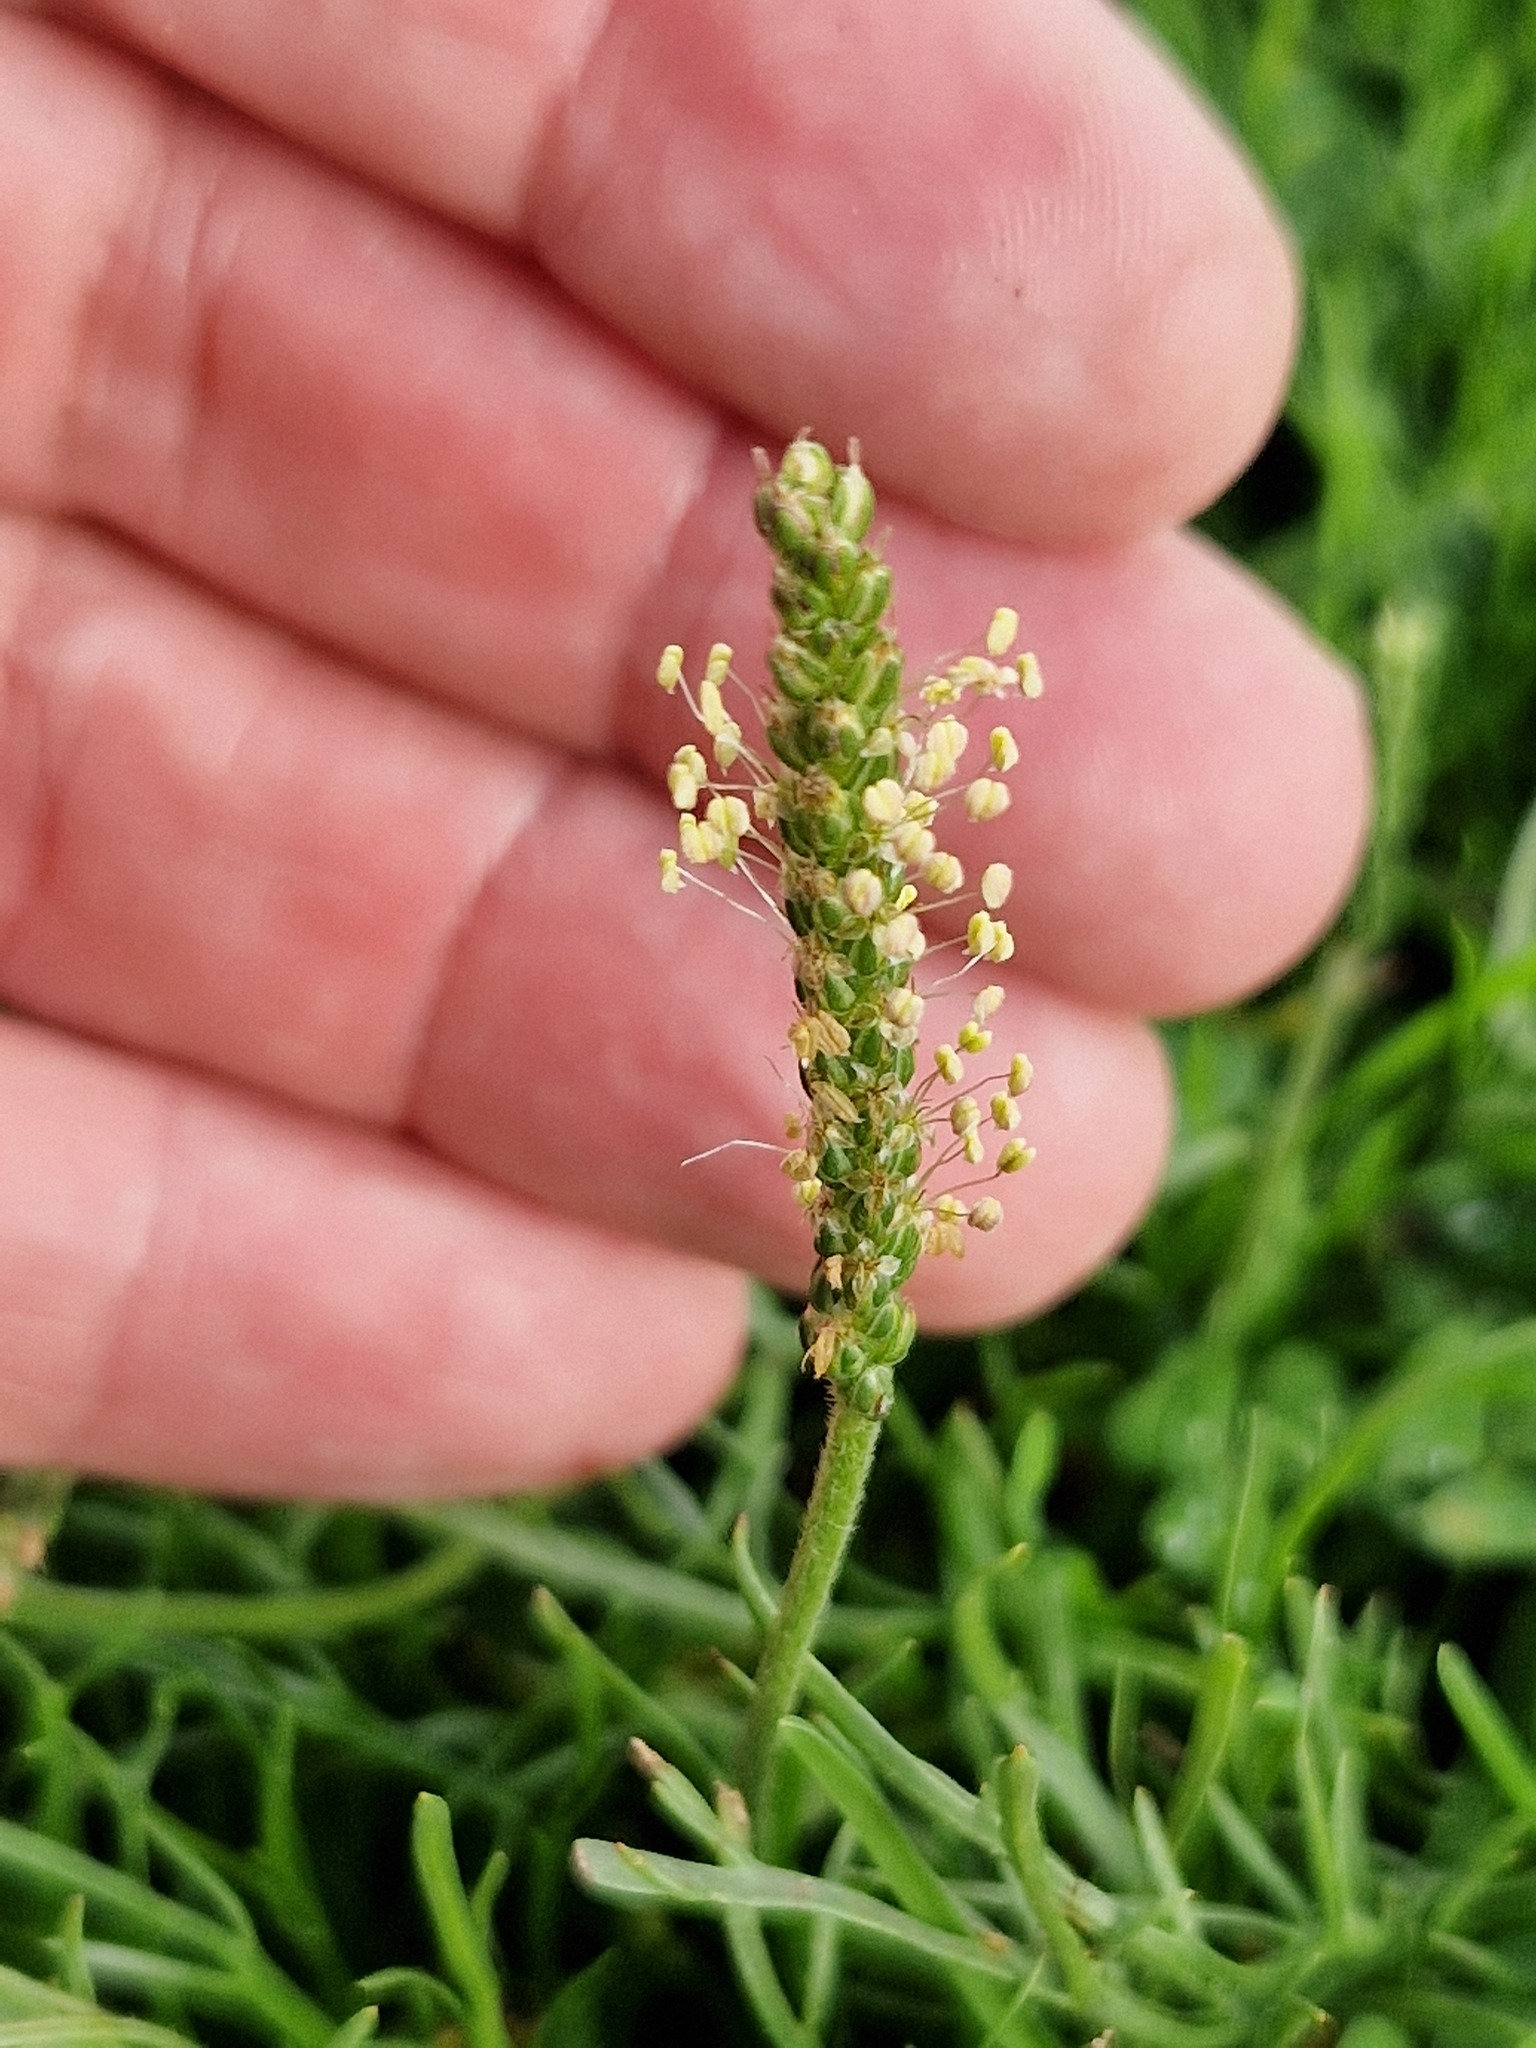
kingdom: Plantae
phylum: Tracheophyta
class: Magnoliopsida
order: Lamiales
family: Plantaginaceae
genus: Plantago
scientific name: Plantago coronopus
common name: Buck's-horn plantain
